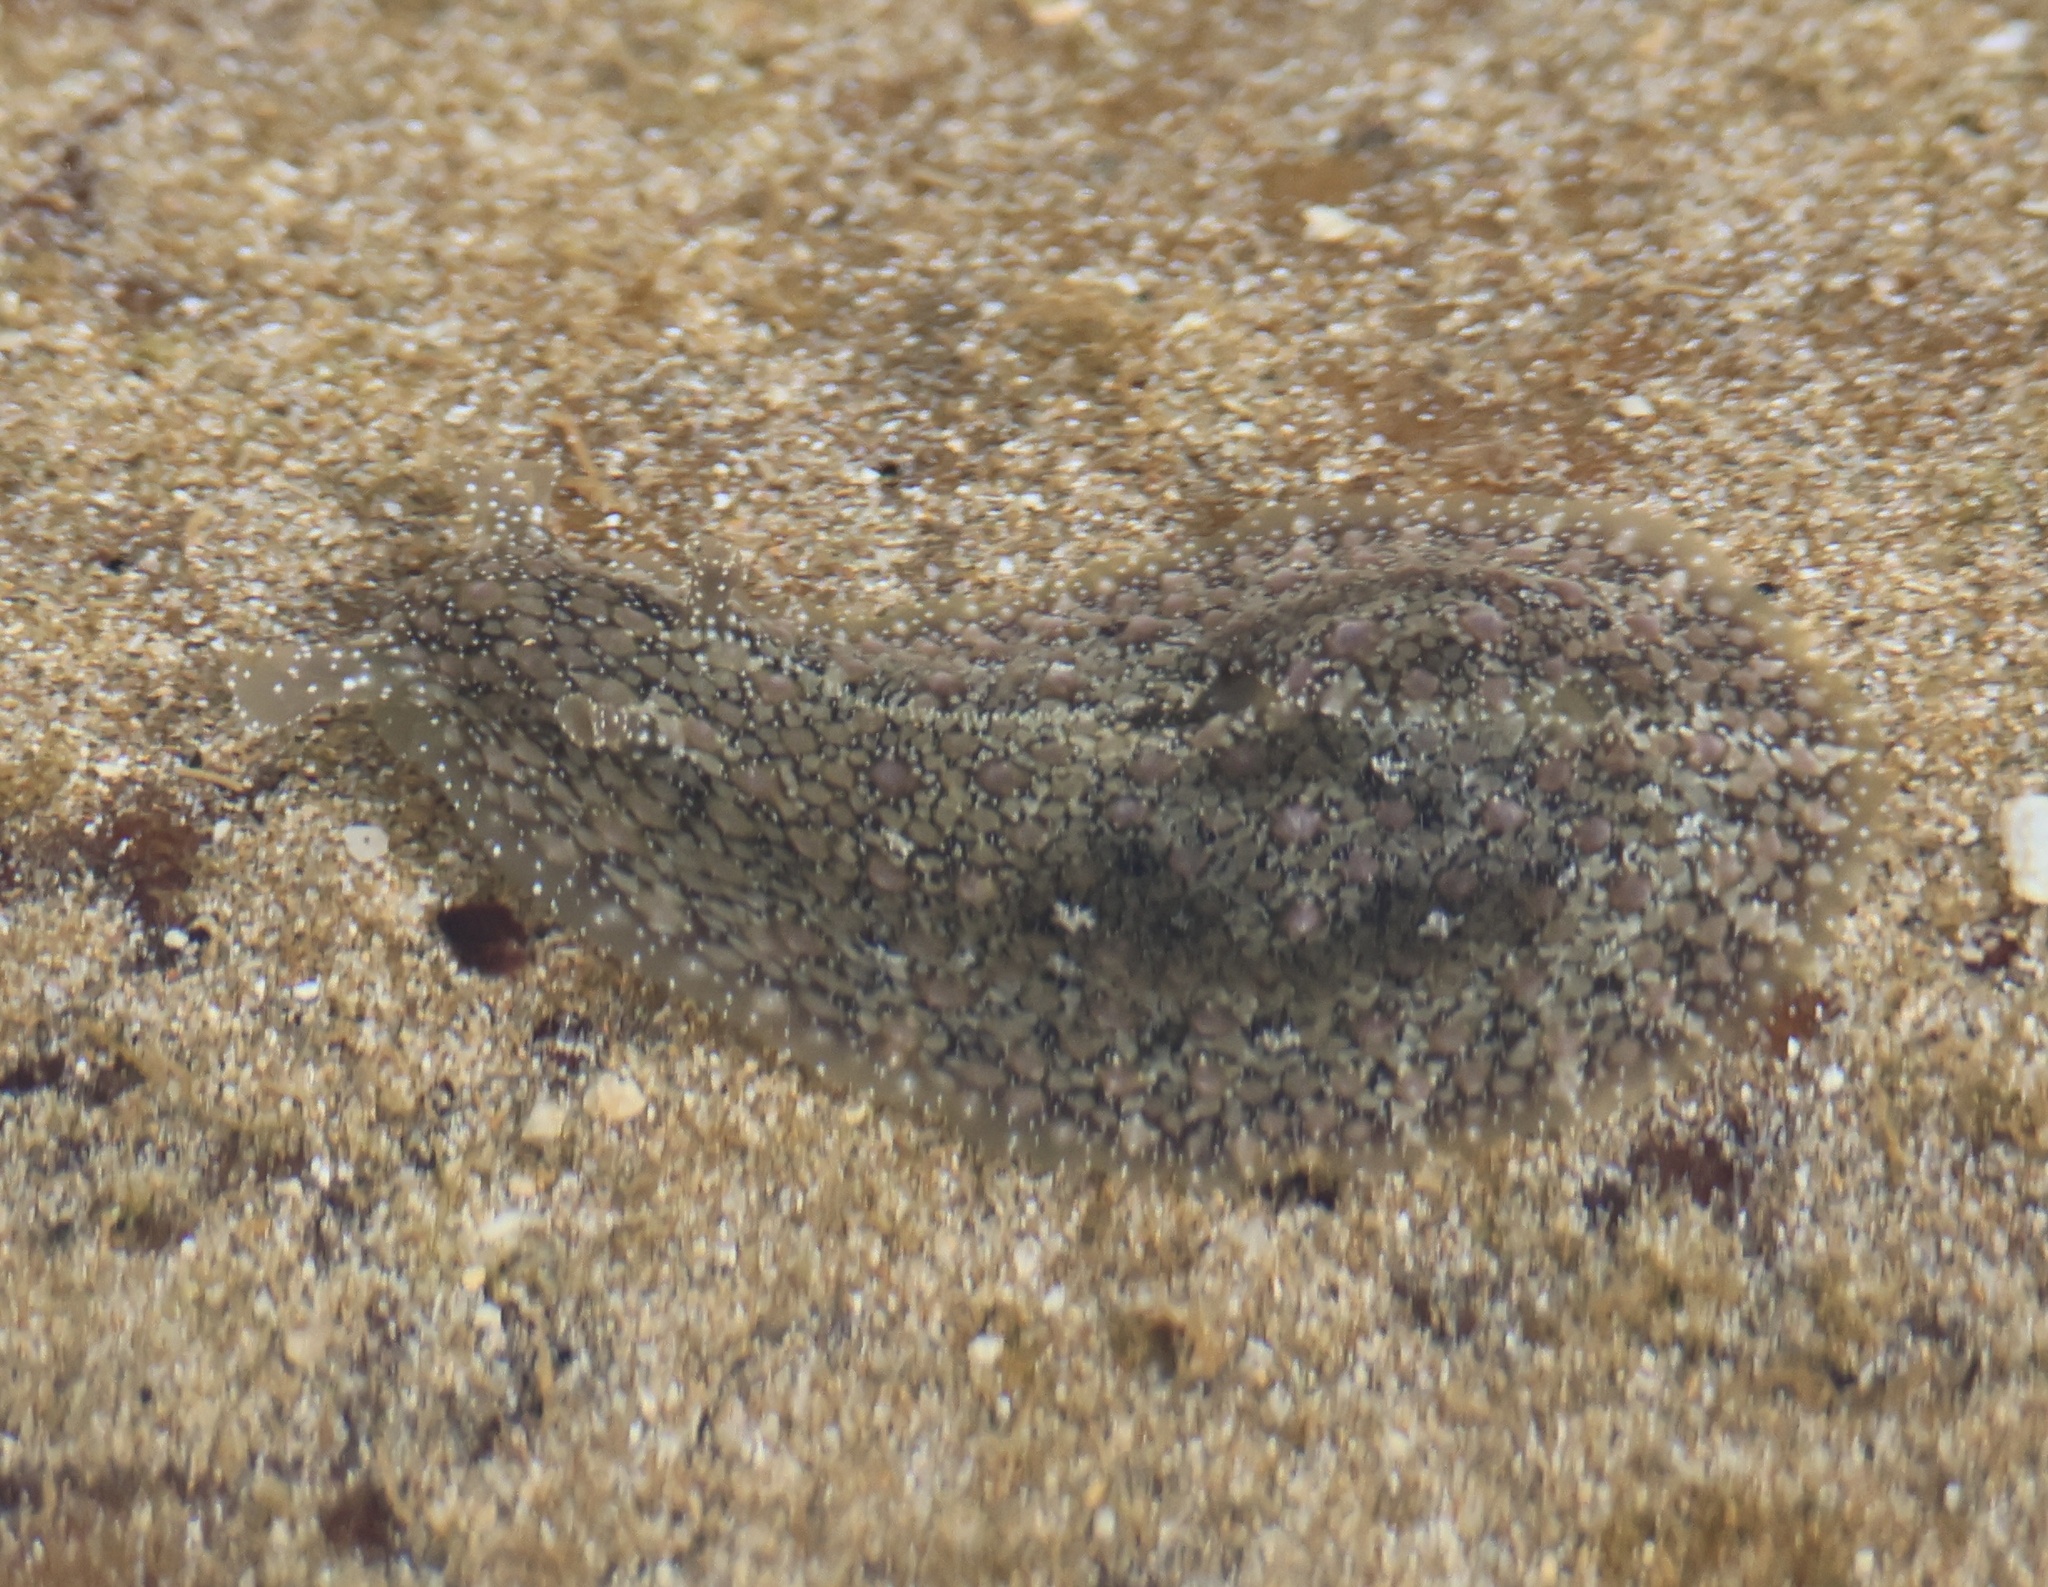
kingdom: Animalia
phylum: Mollusca
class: Gastropoda
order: Aplysiida
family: Aplysiidae
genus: Dolabrifera
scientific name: Dolabrifera nicaraguana
